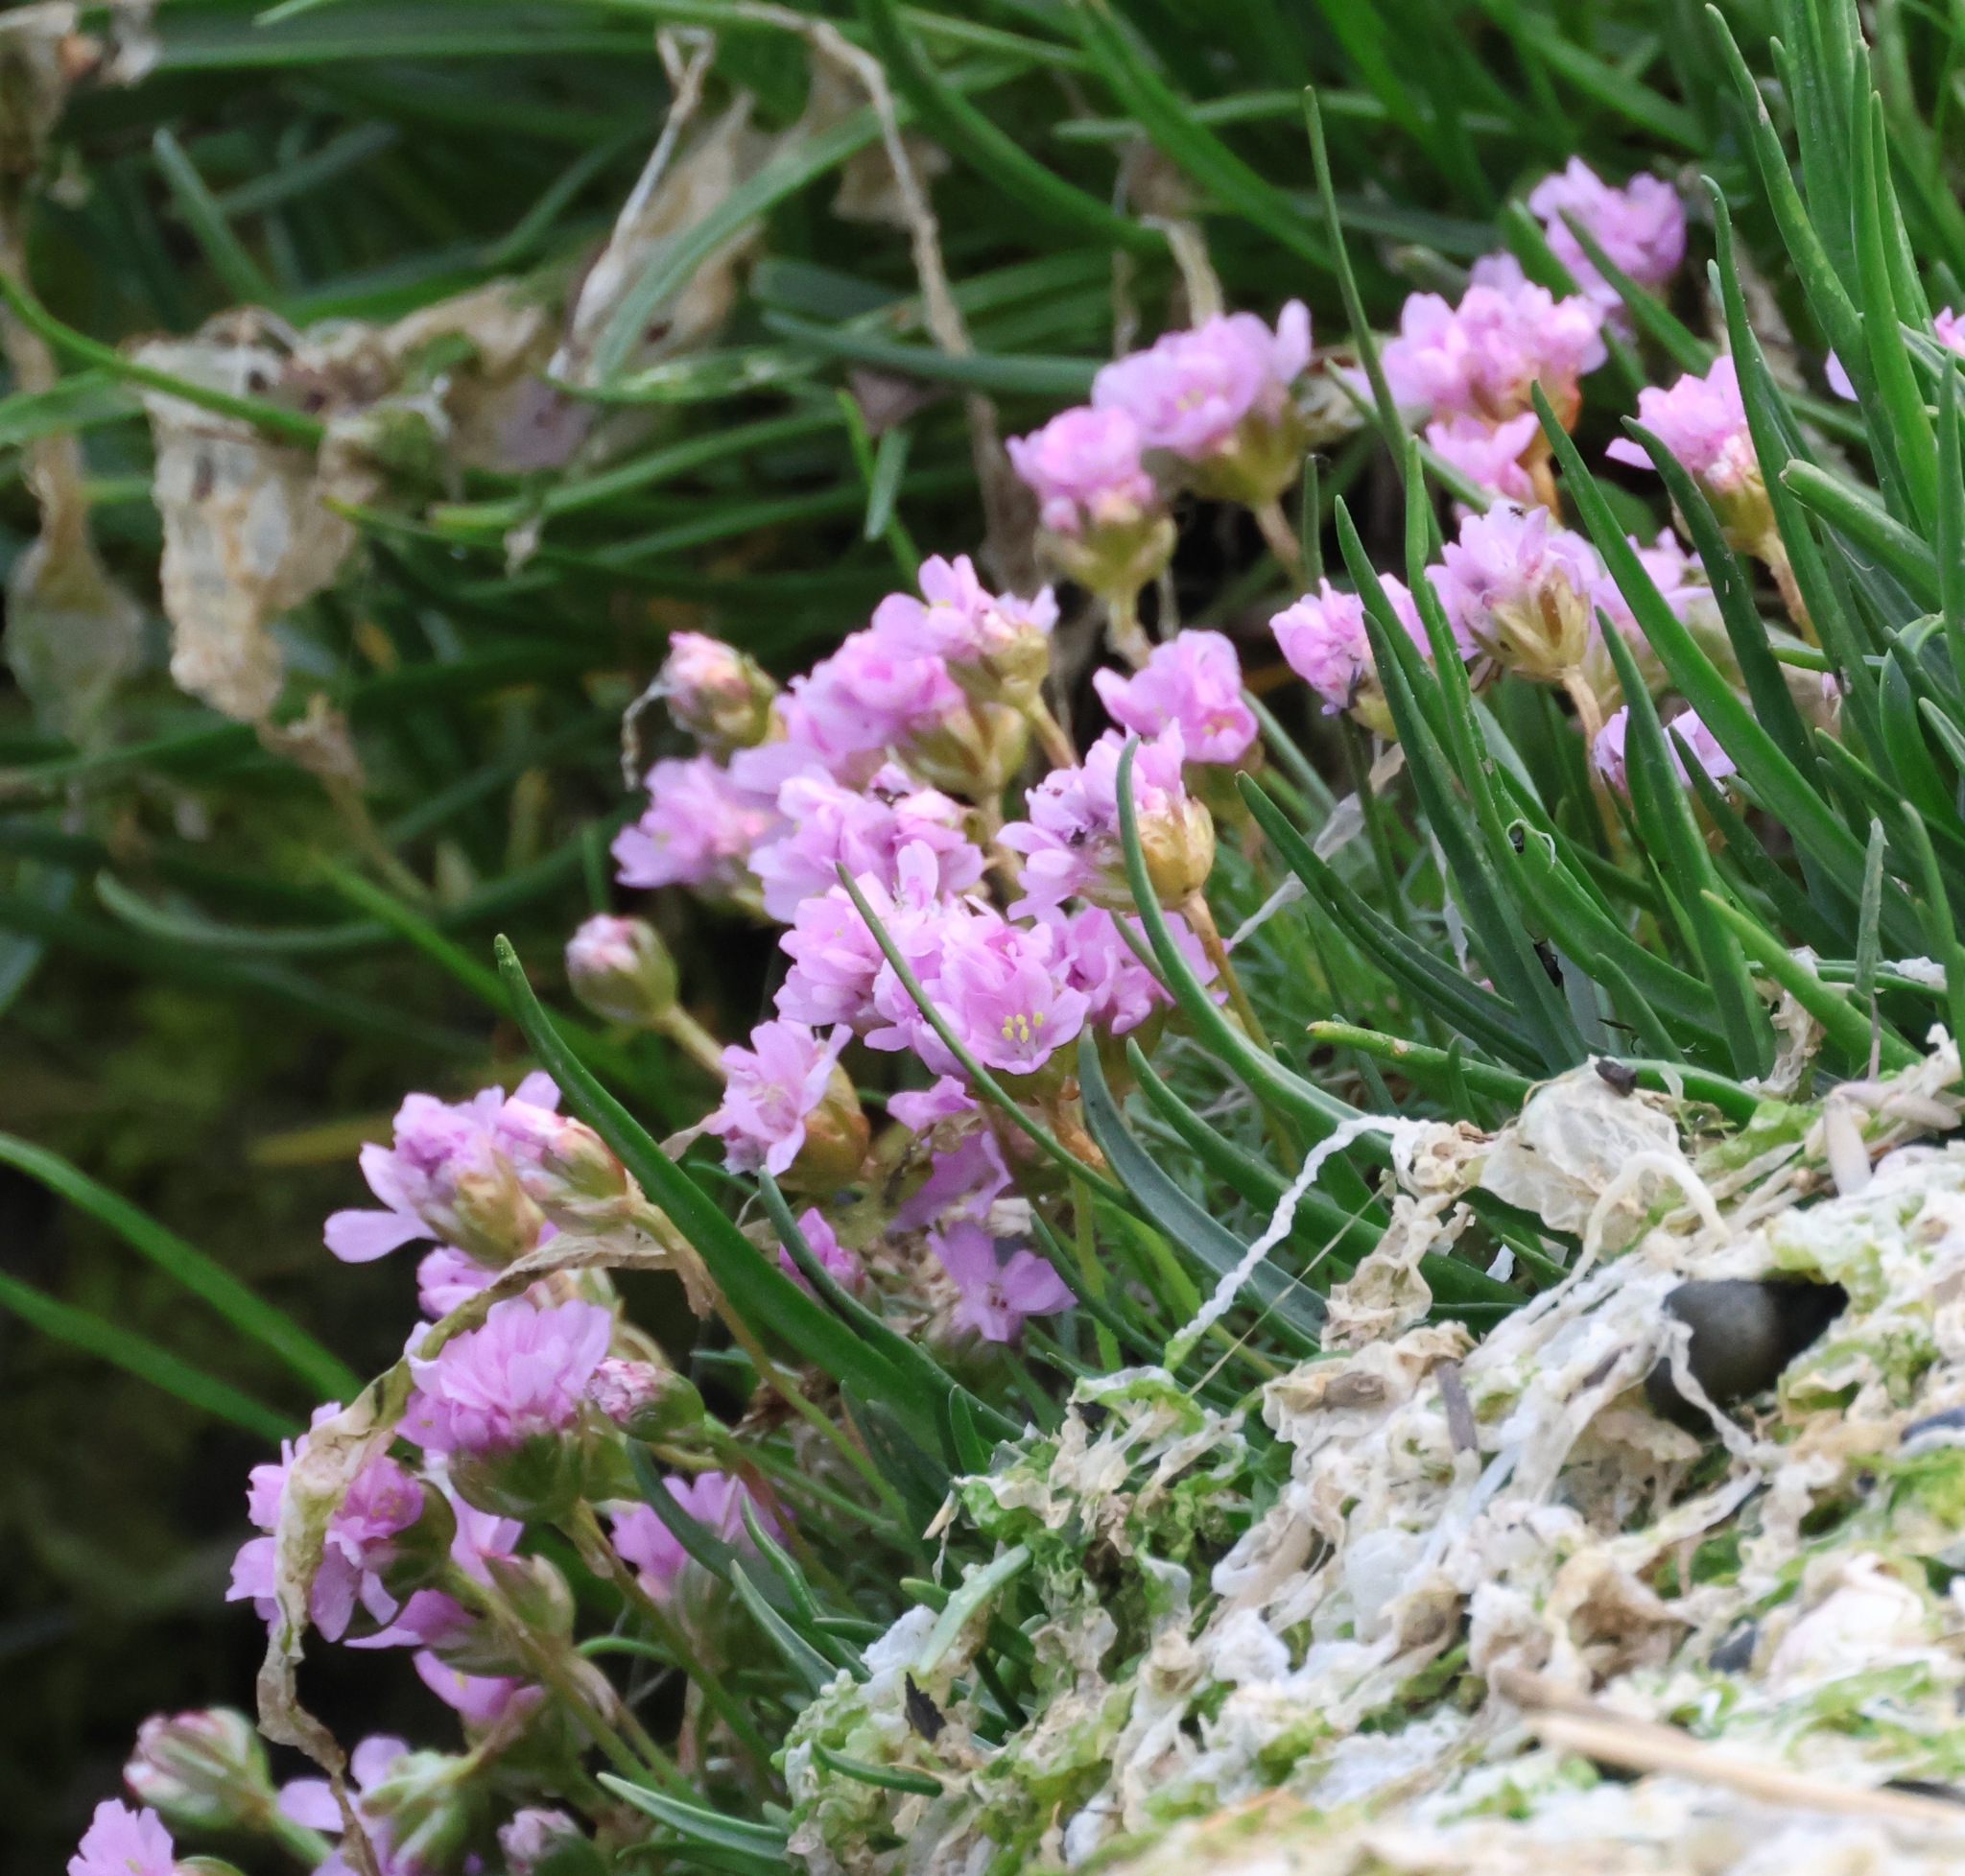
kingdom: Plantae
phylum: Tracheophyta
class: Magnoliopsida
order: Caryophyllales
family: Plumbaginaceae
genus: Armeria
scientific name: Armeria maritima
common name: Thrift
